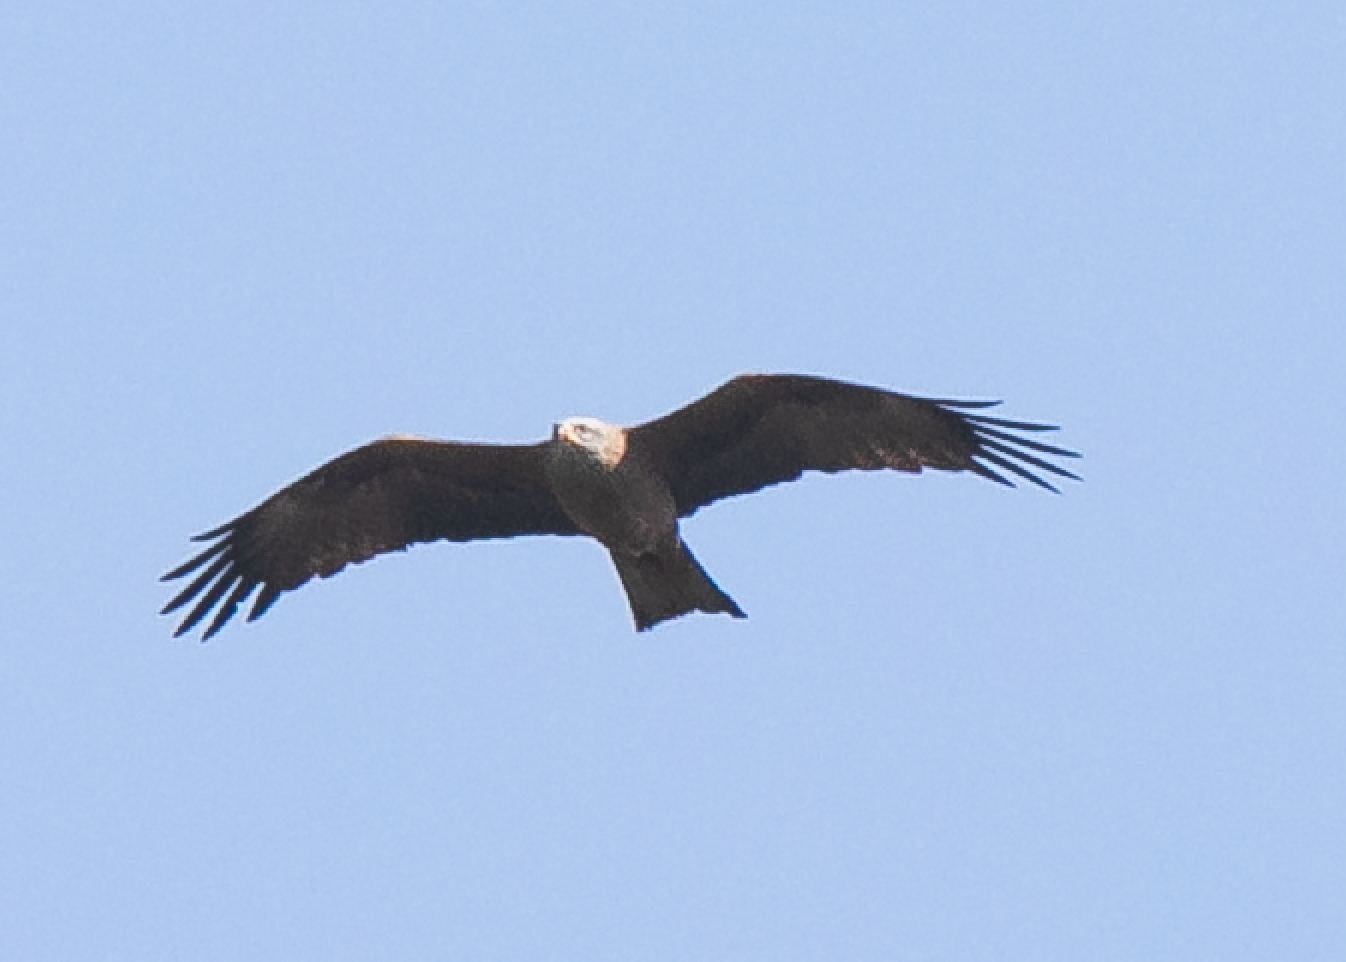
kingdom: Animalia
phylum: Chordata
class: Aves
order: Accipitriformes
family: Accipitridae
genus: Milvus
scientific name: Milvus migrans
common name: Black kite
